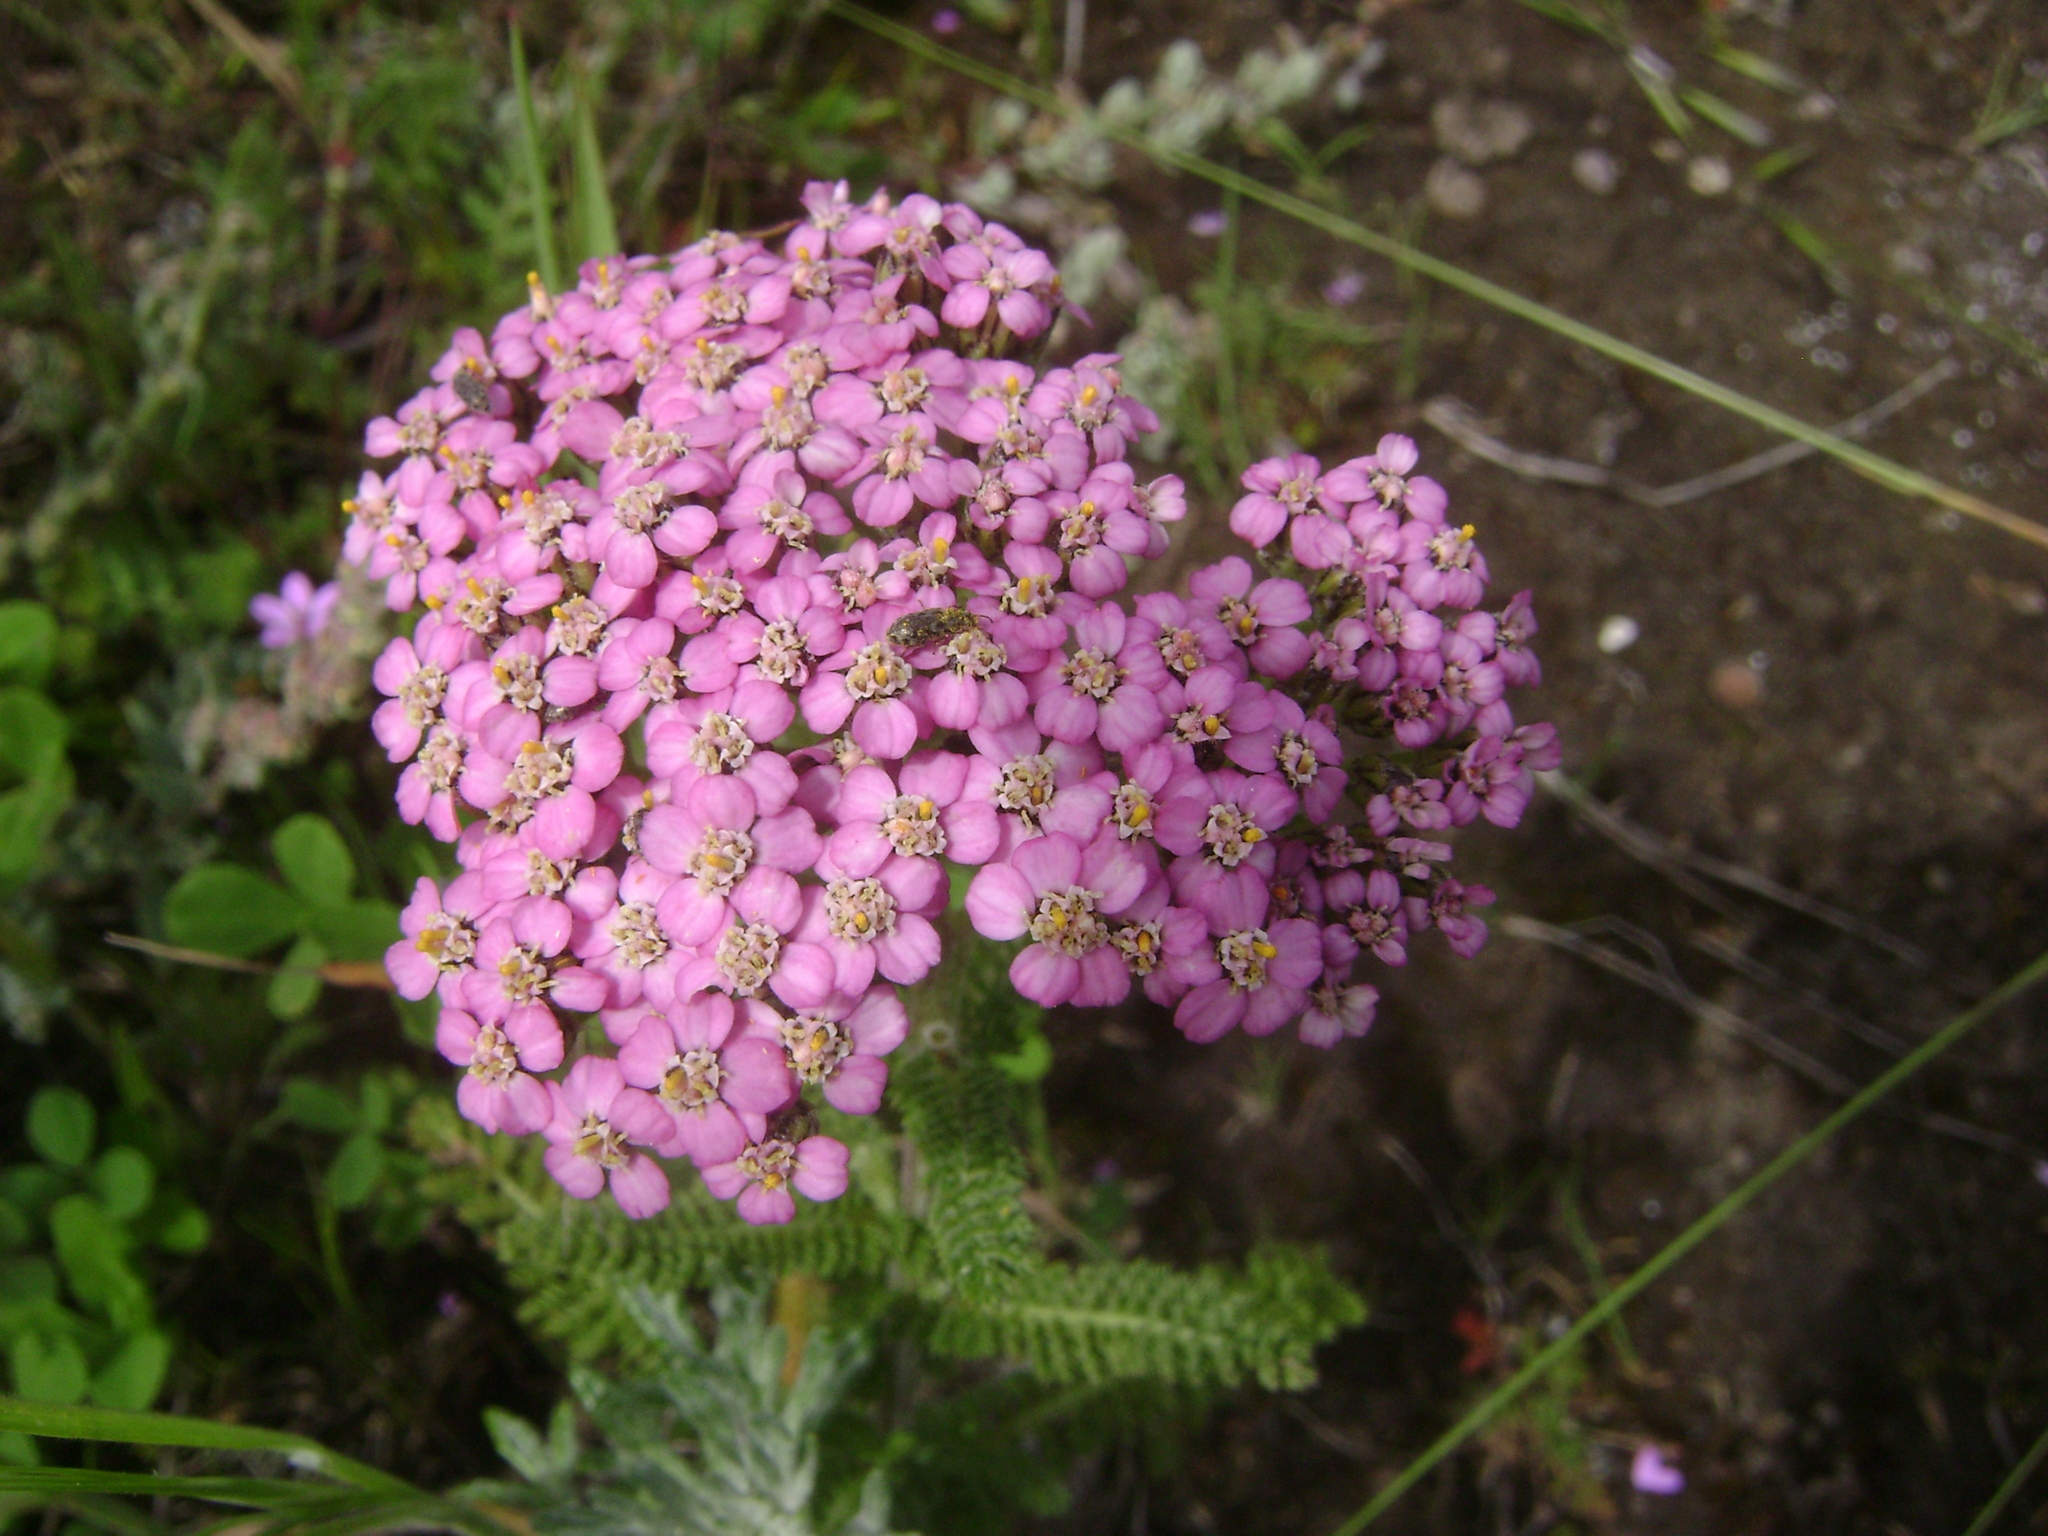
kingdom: Plantae
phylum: Tracheophyta
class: Magnoliopsida
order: Asterales
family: Asteraceae
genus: Achillea
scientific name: Achillea millefolium
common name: Yarrow
